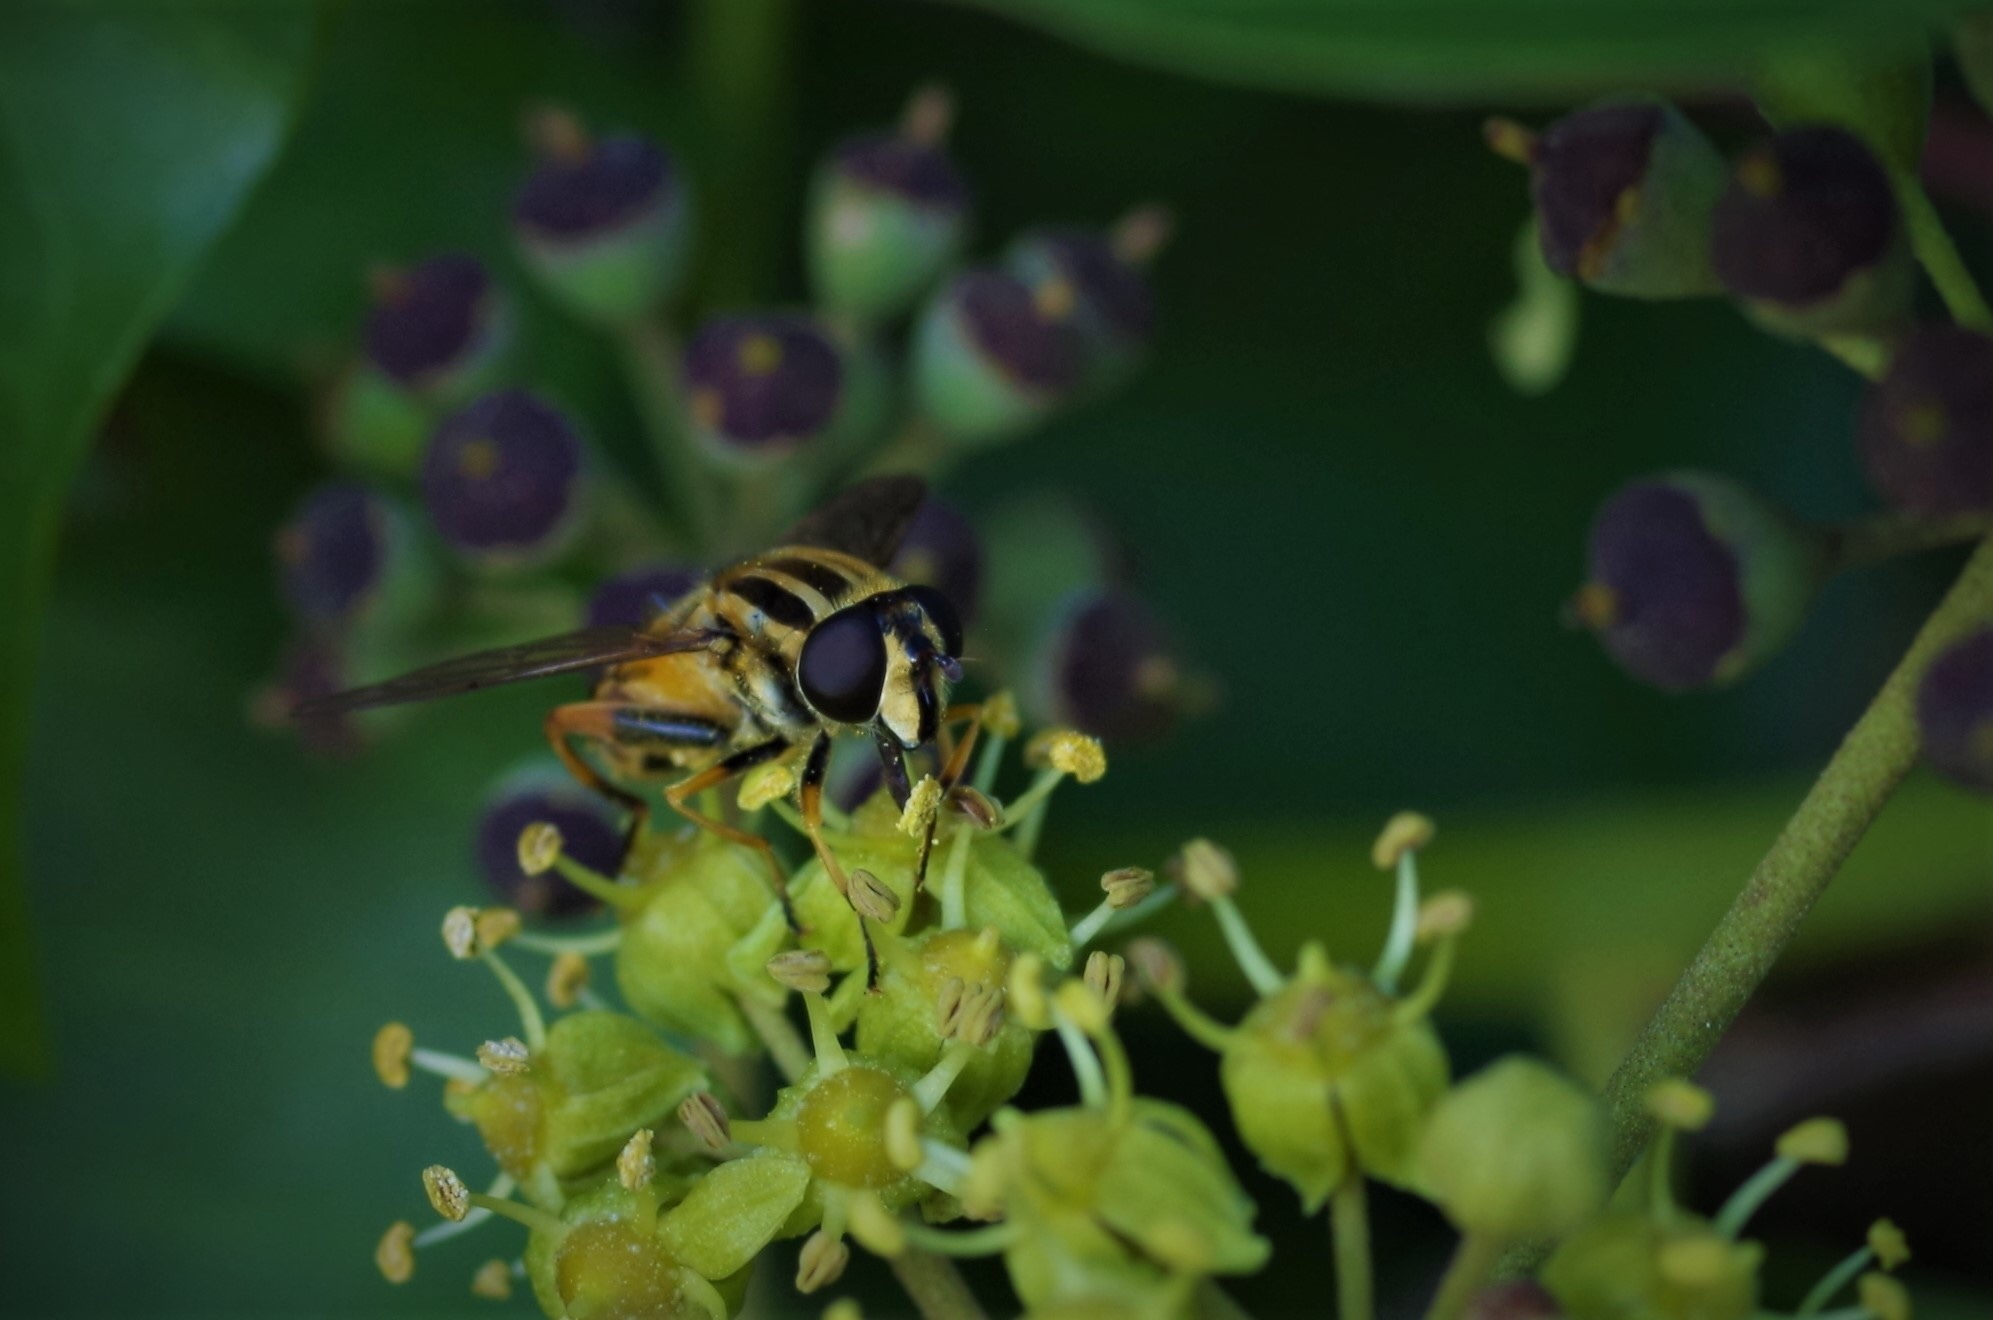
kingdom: Animalia
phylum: Arthropoda
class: Insecta
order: Diptera
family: Syrphidae
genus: Helophilus
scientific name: Helophilus pendulus
